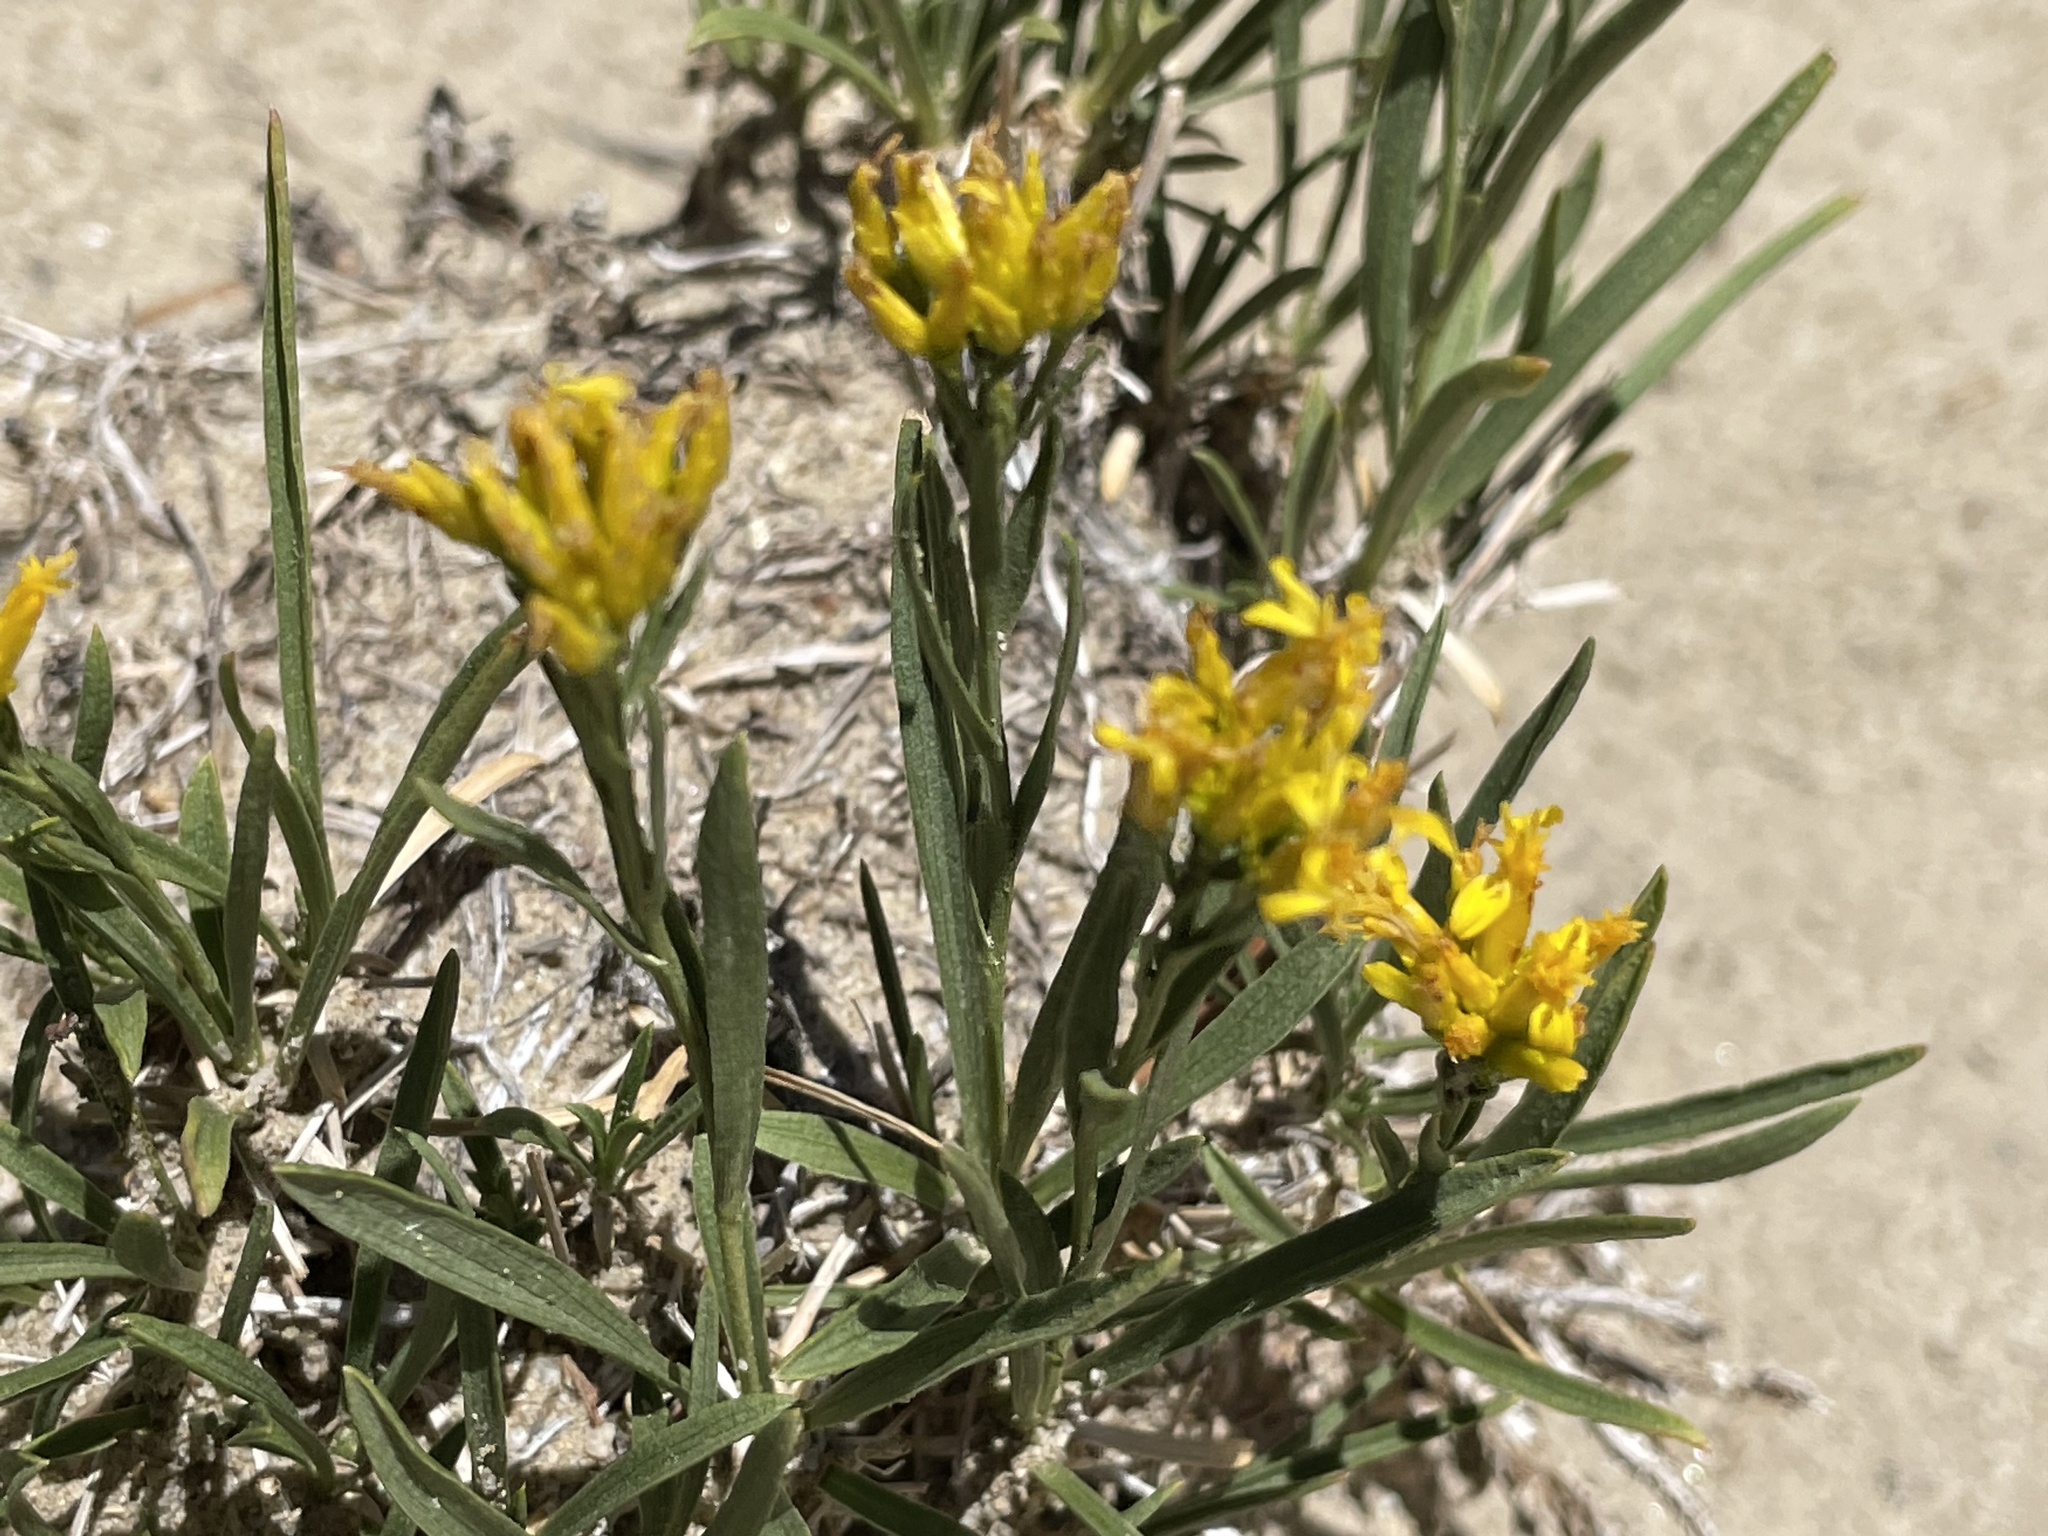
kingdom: Plantae
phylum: Tracheophyta
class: Magnoliopsida
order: Asterales
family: Asteraceae
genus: Petradoria
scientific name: Petradoria pumila
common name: Rock-goldenrod
